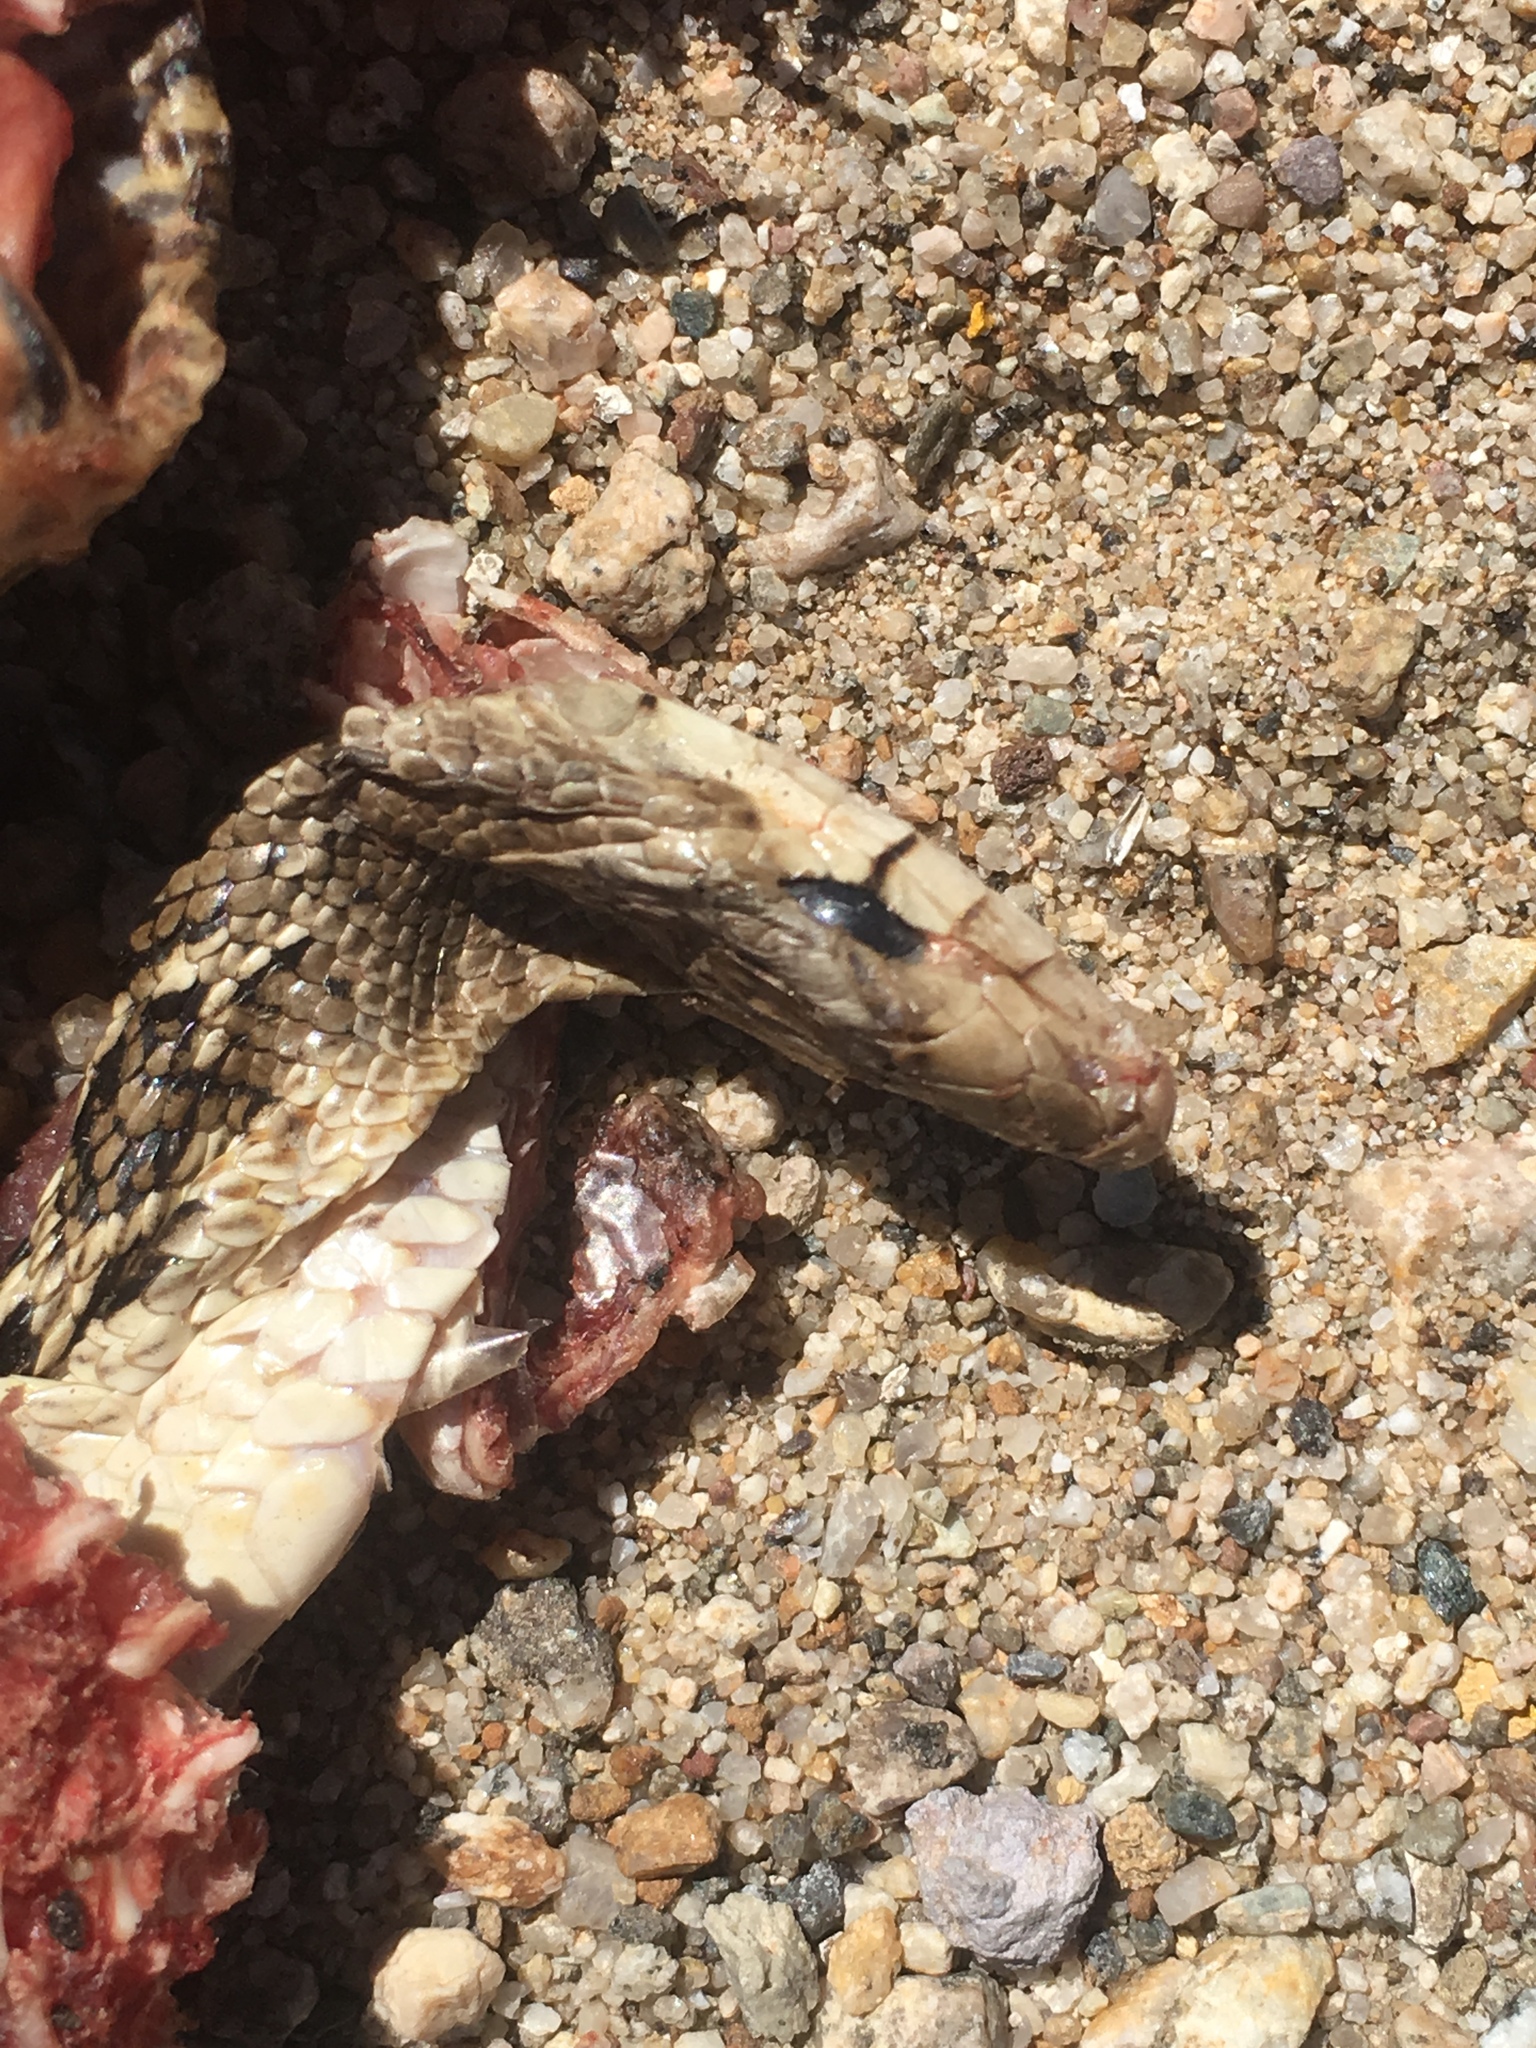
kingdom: Animalia
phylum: Chordata
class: Squamata
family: Colubridae
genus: Pituophis
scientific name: Pituophis catenifer
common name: Gopher snake
